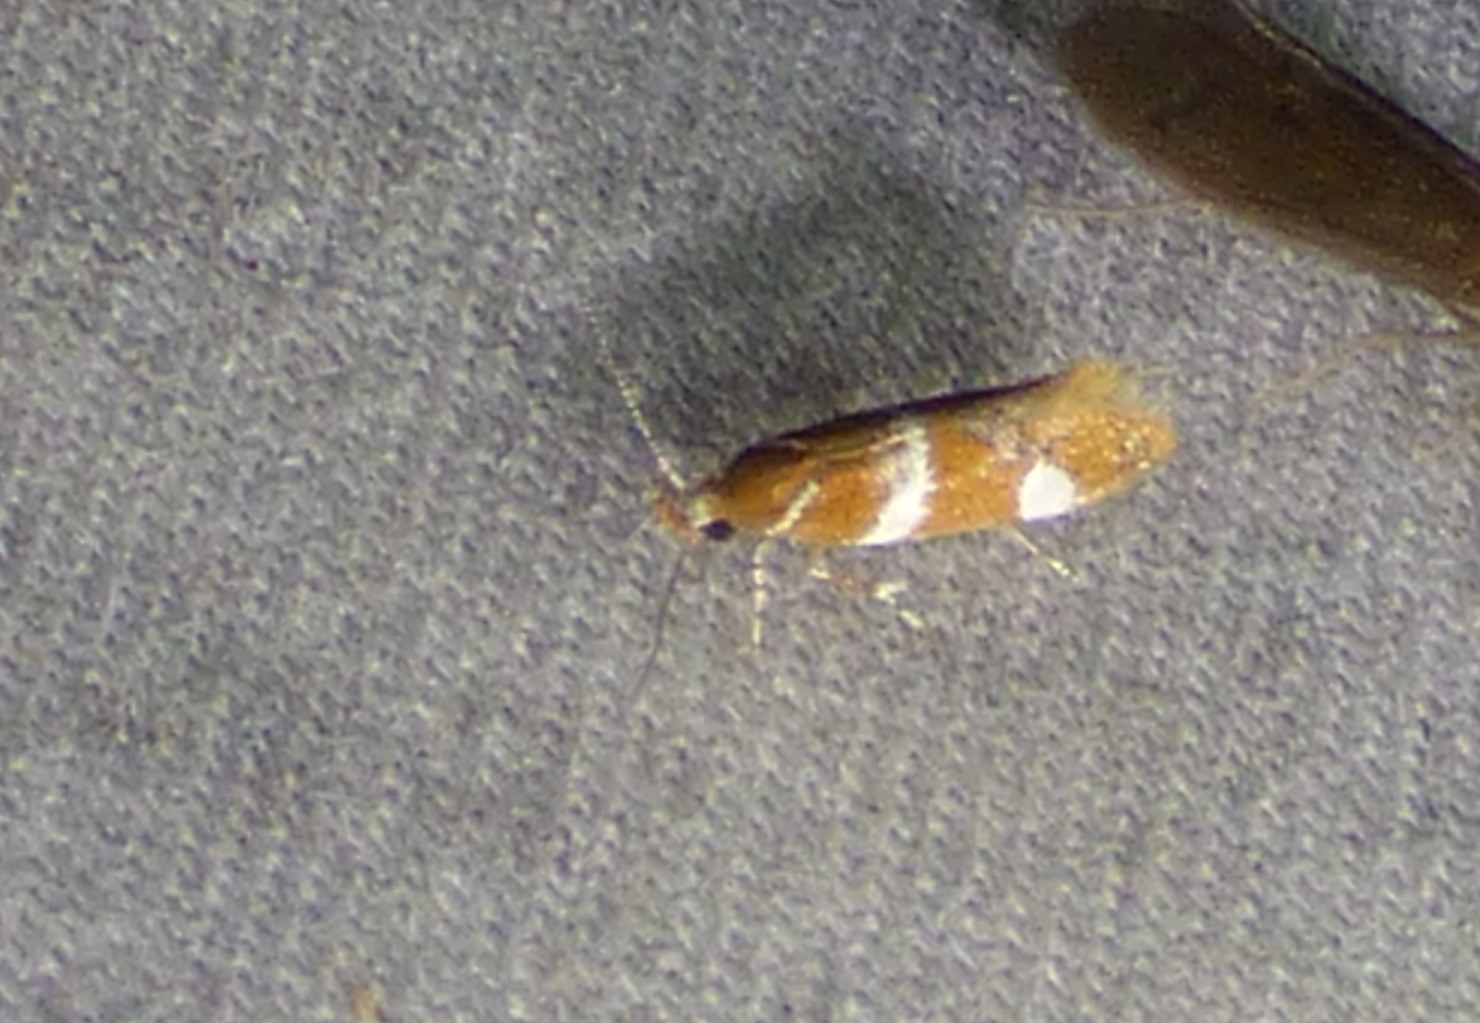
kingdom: Animalia
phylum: Arthropoda
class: Insecta
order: Lepidoptera
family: Oecophoridae
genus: Promalactis
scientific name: Promalactis suzukiella
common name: Moth
